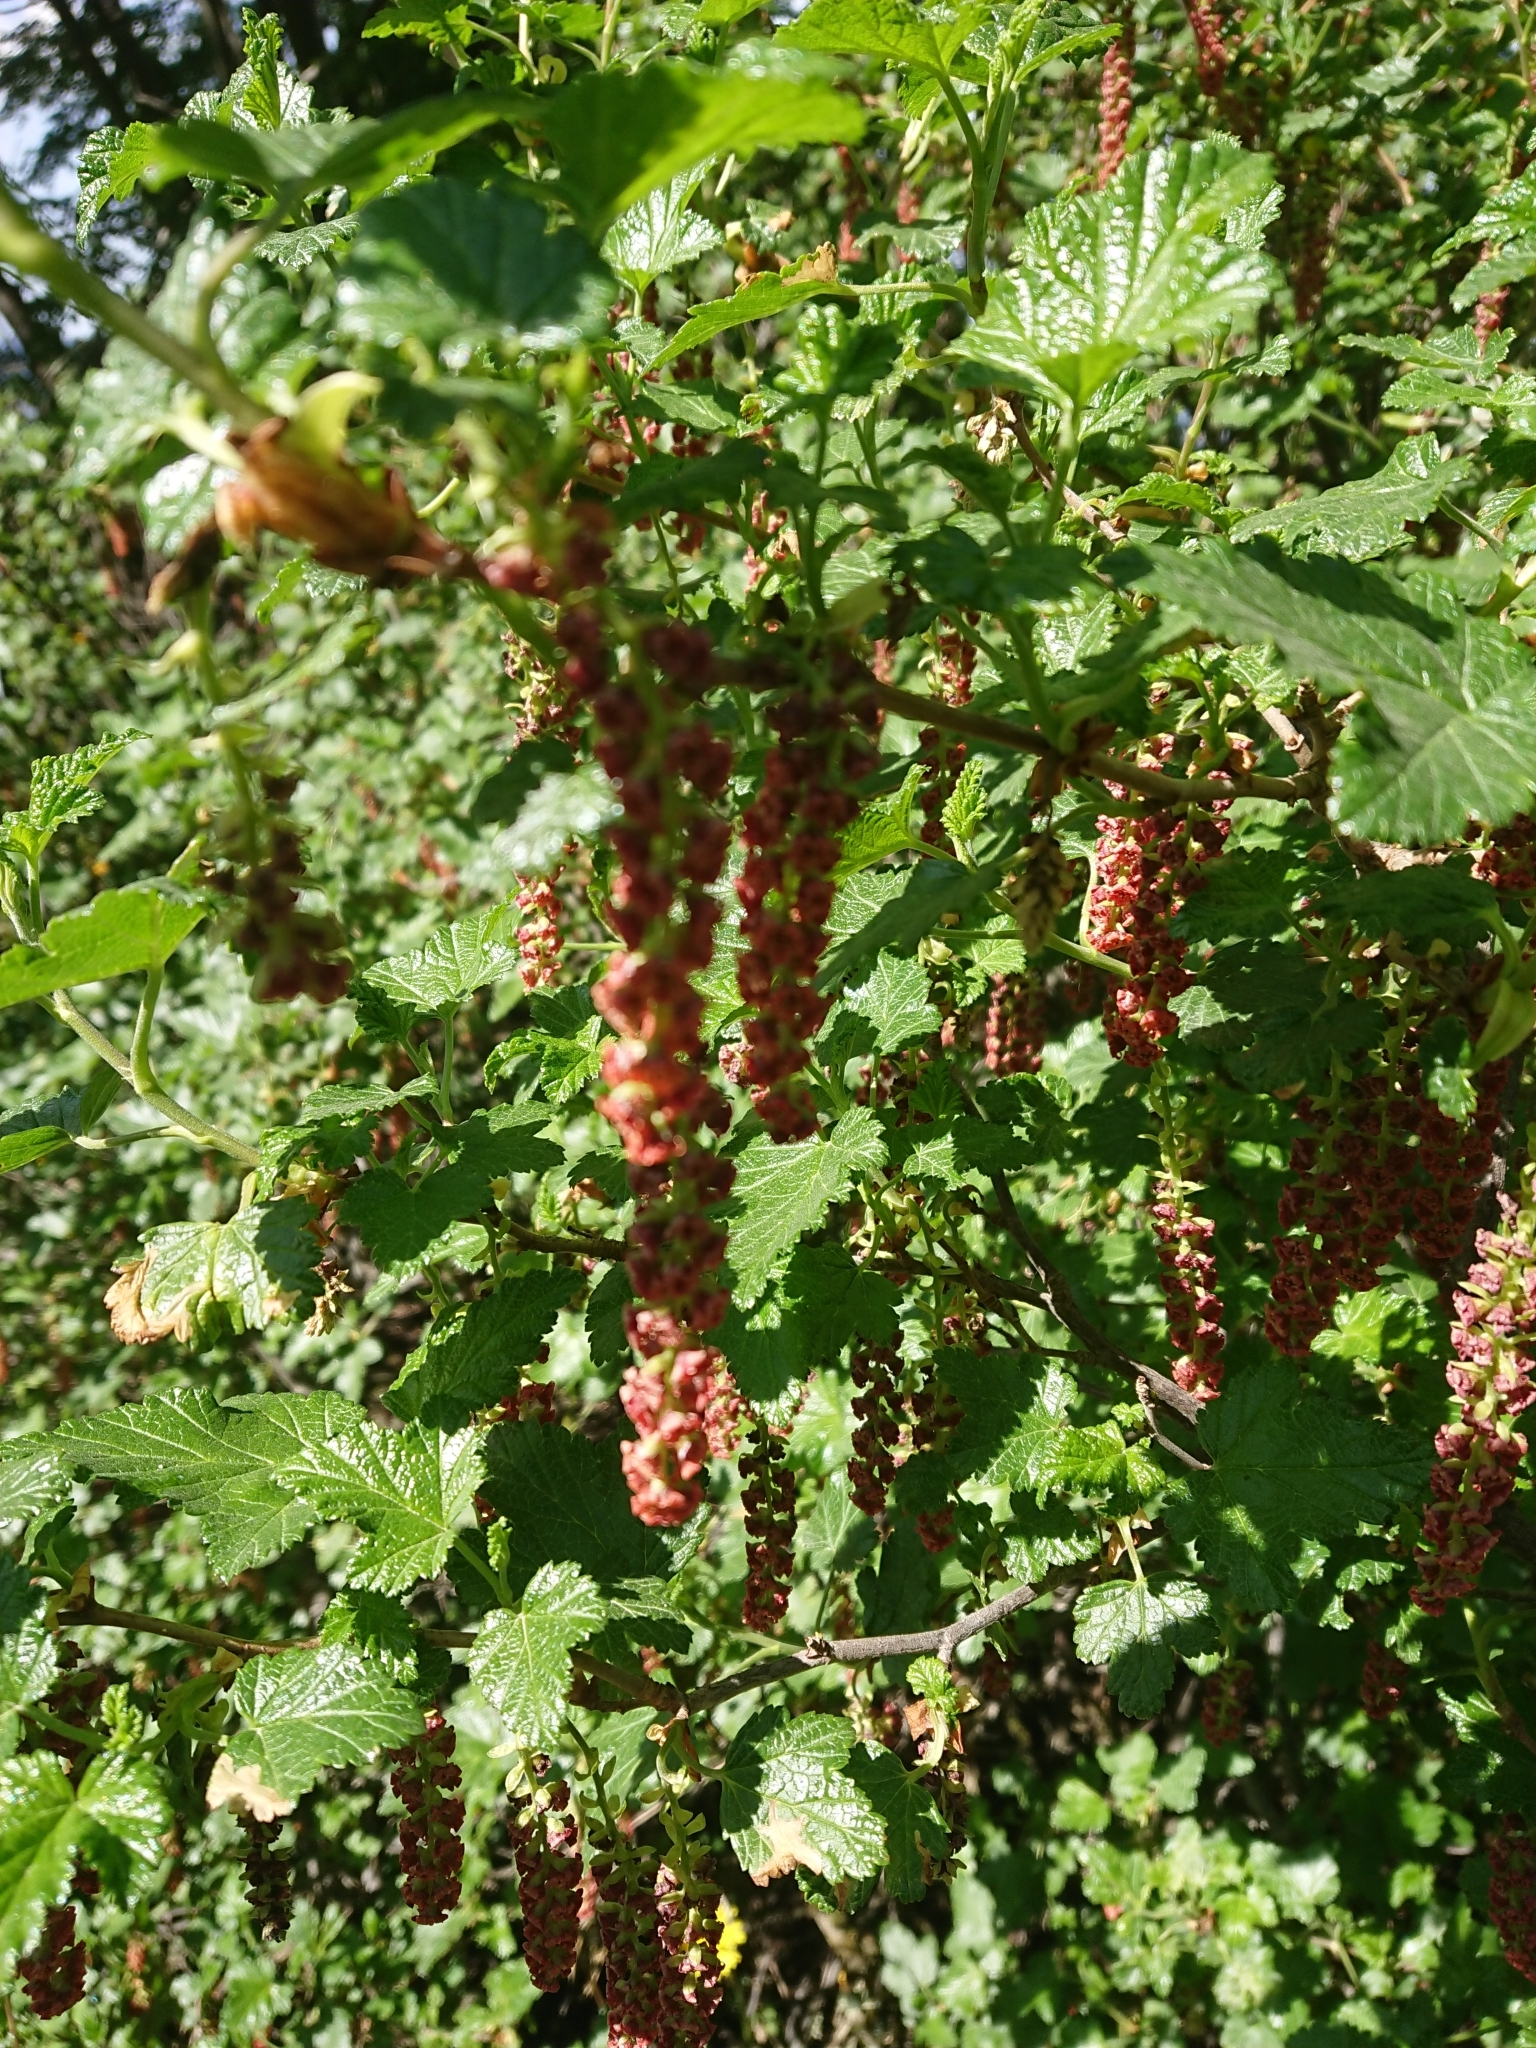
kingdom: Plantae
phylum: Tracheophyta
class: Magnoliopsida
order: Saxifragales
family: Grossulariaceae
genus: Ribes
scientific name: Ribes magellanicum
